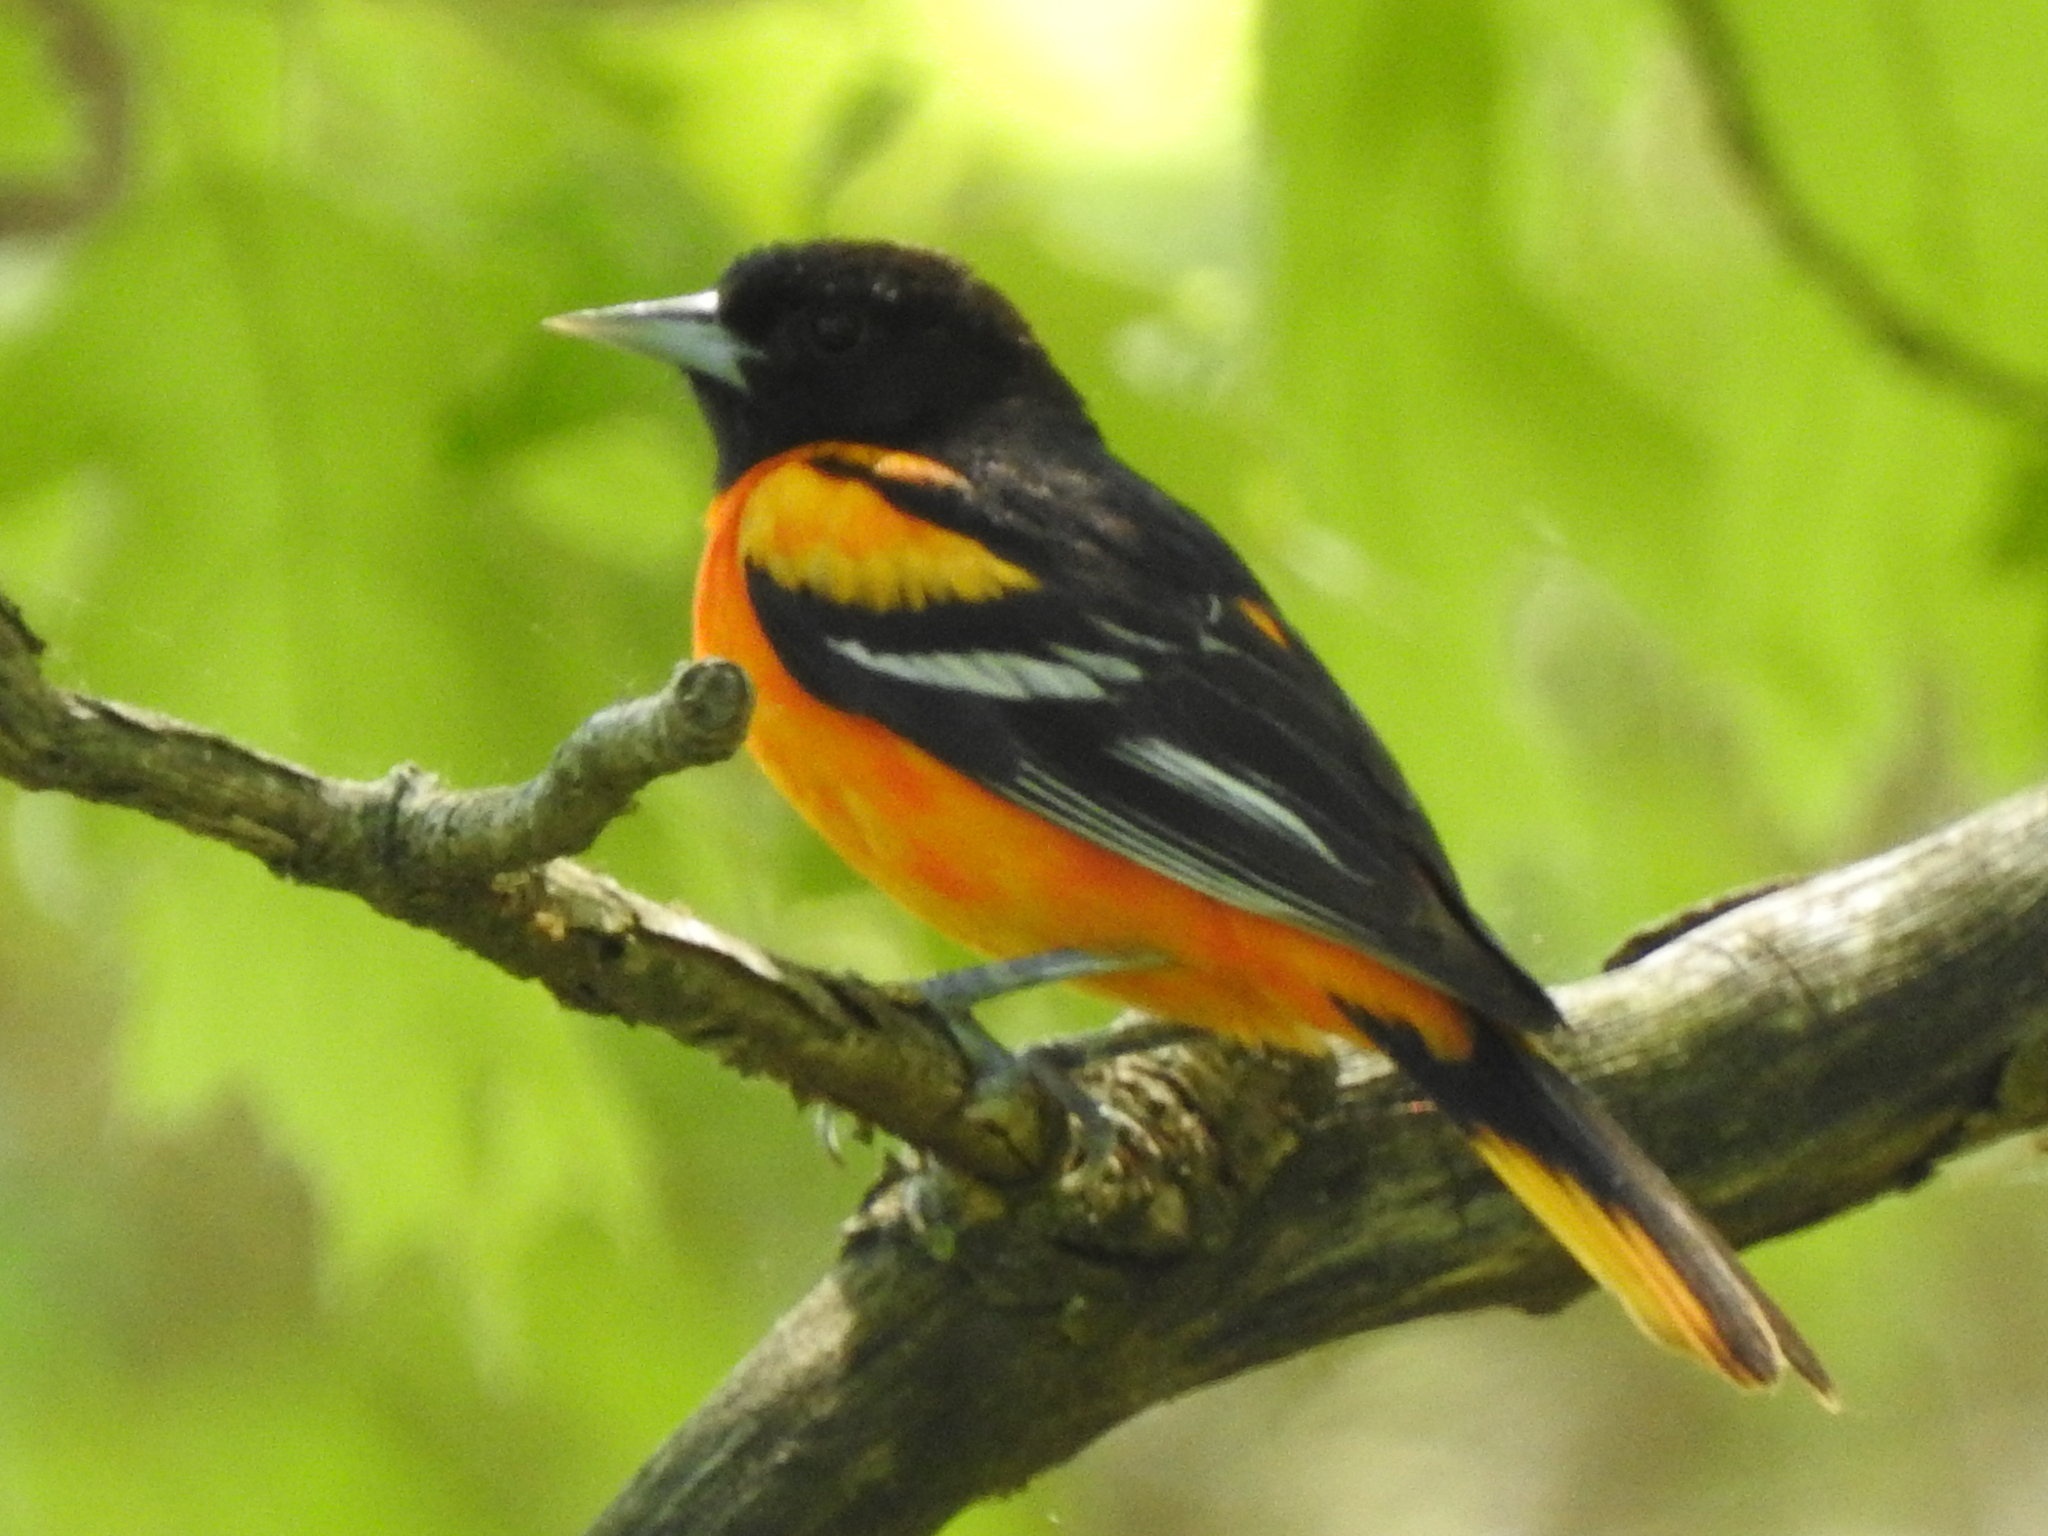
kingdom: Animalia
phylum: Chordata
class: Aves
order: Passeriformes
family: Icteridae
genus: Icterus
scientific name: Icterus galbula
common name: Baltimore oriole
